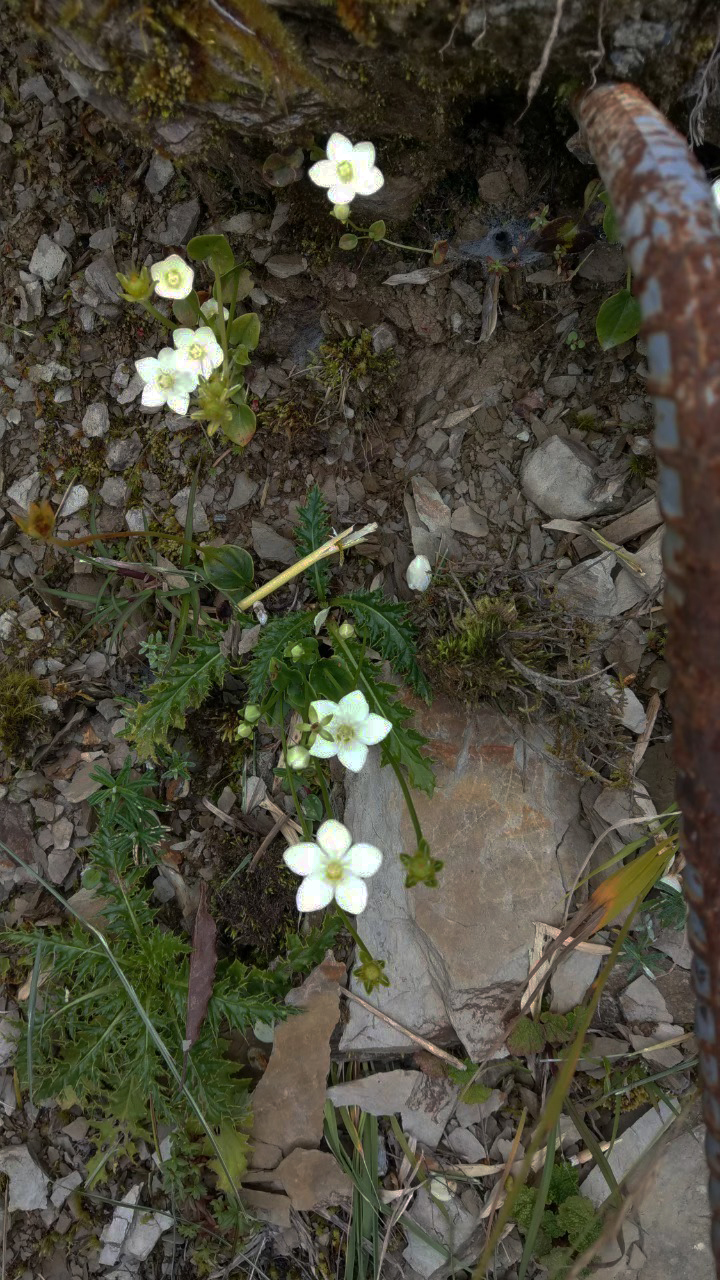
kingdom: Plantae
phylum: Tracheophyta
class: Magnoliopsida
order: Celastrales
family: Parnassiaceae
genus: Parnassia
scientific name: Parnassia palustris
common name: Grass-of-parnassus
